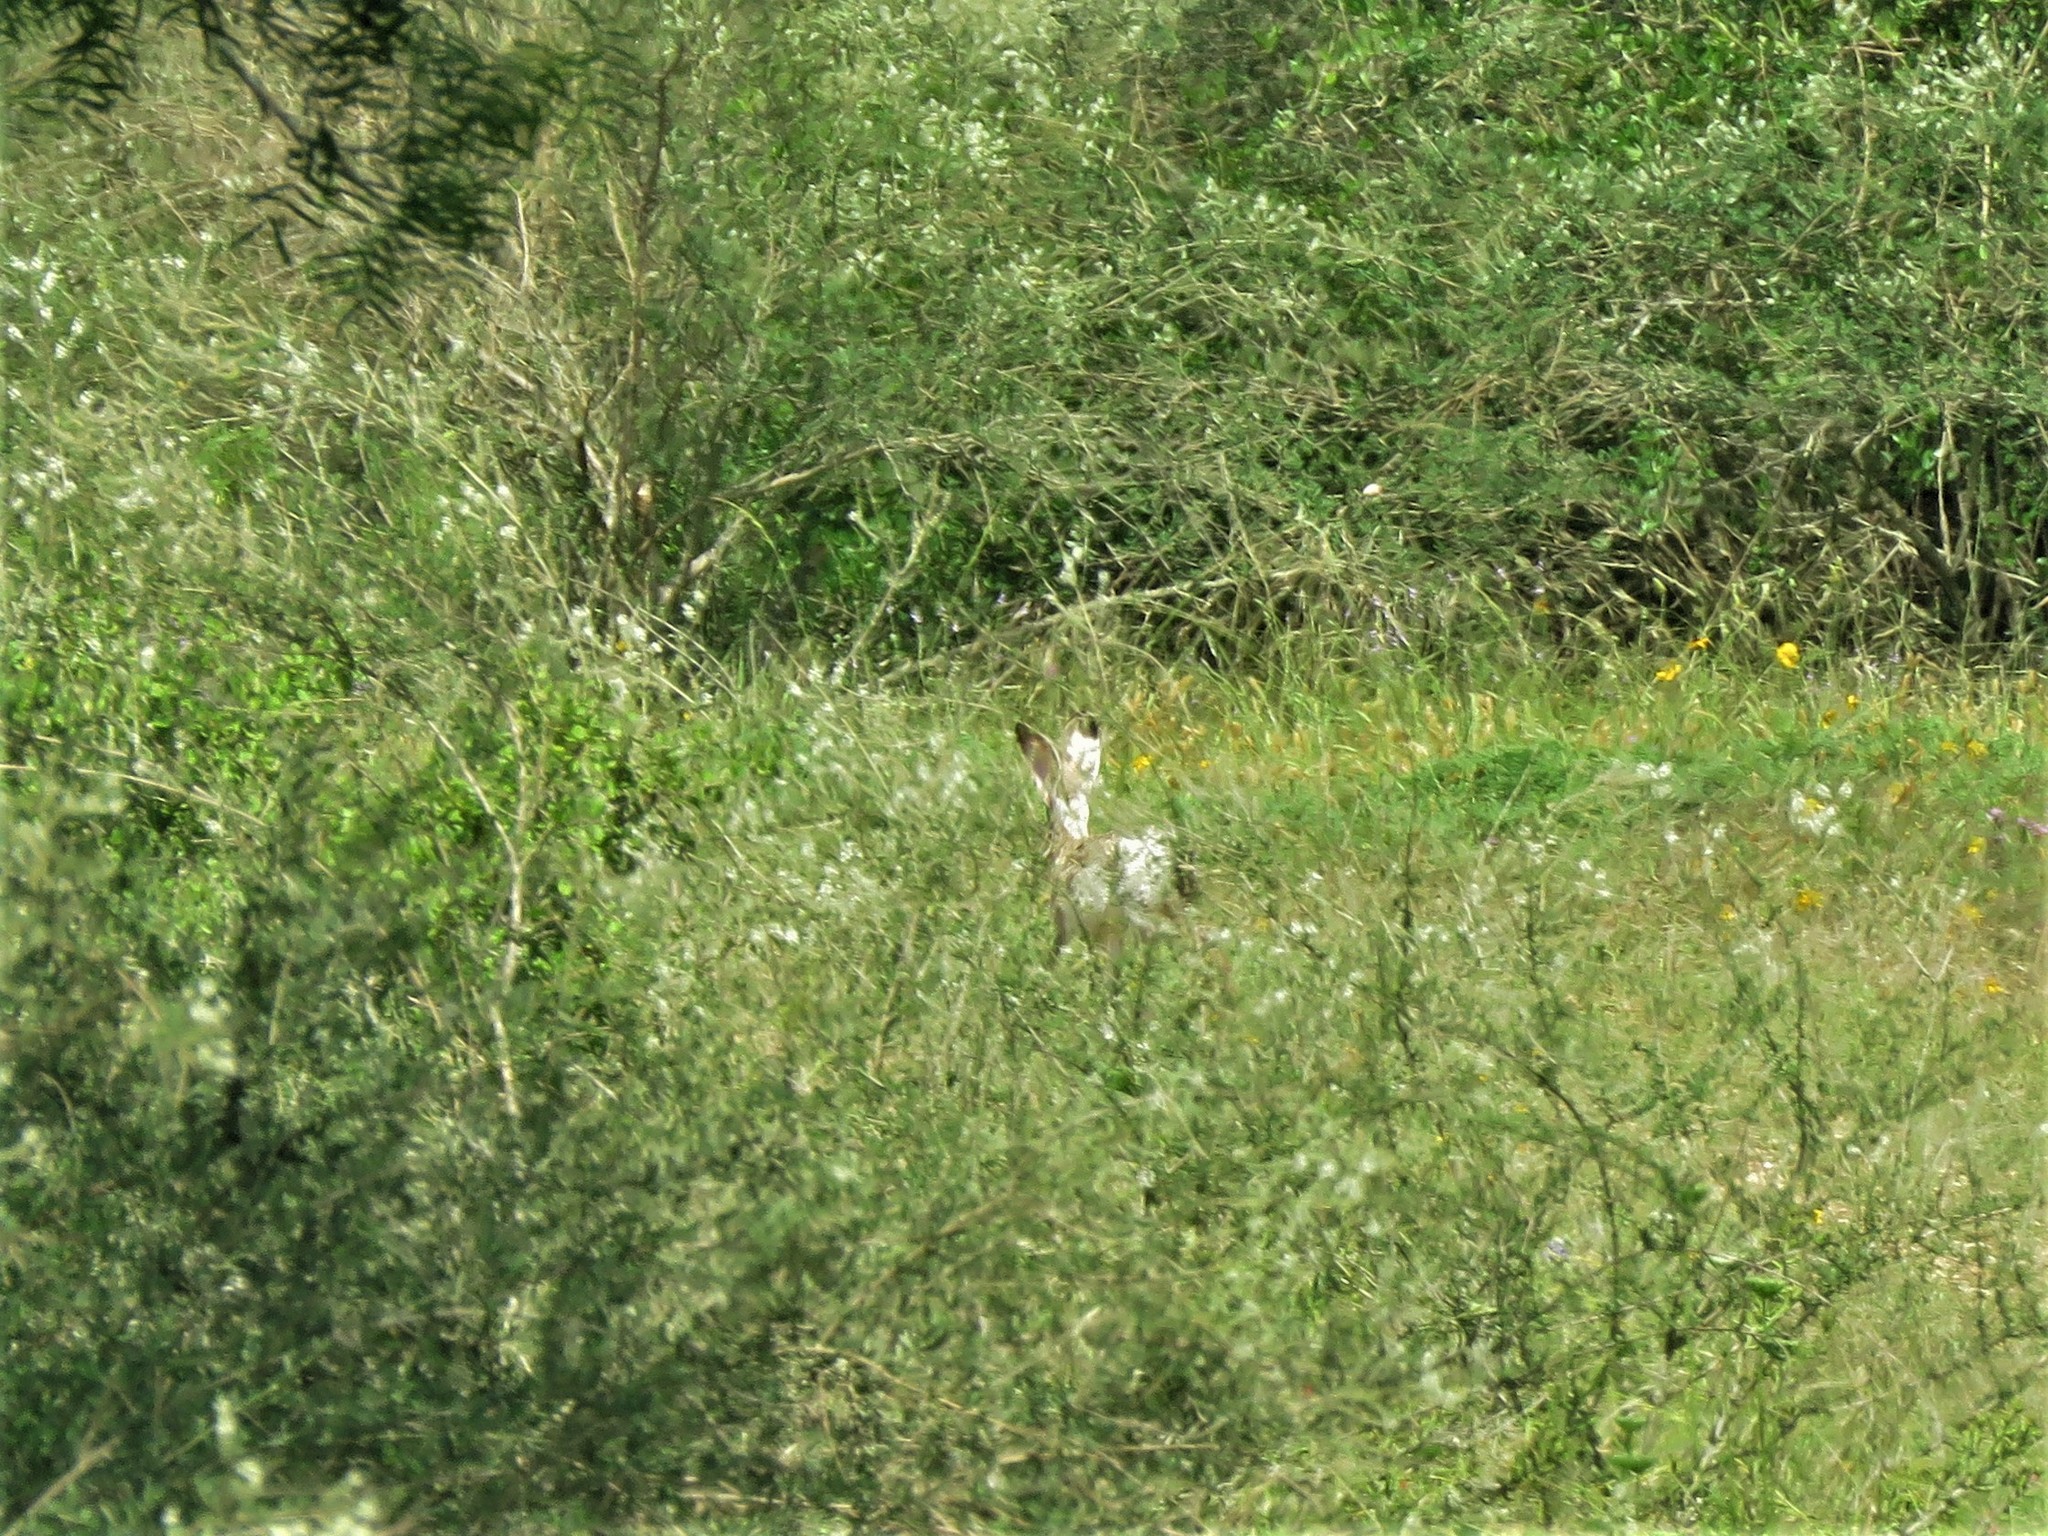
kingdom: Animalia
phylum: Chordata
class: Mammalia
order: Lagomorpha
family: Leporidae
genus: Lepus
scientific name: Lepus californicus
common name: Black-tailed jackrabbit
